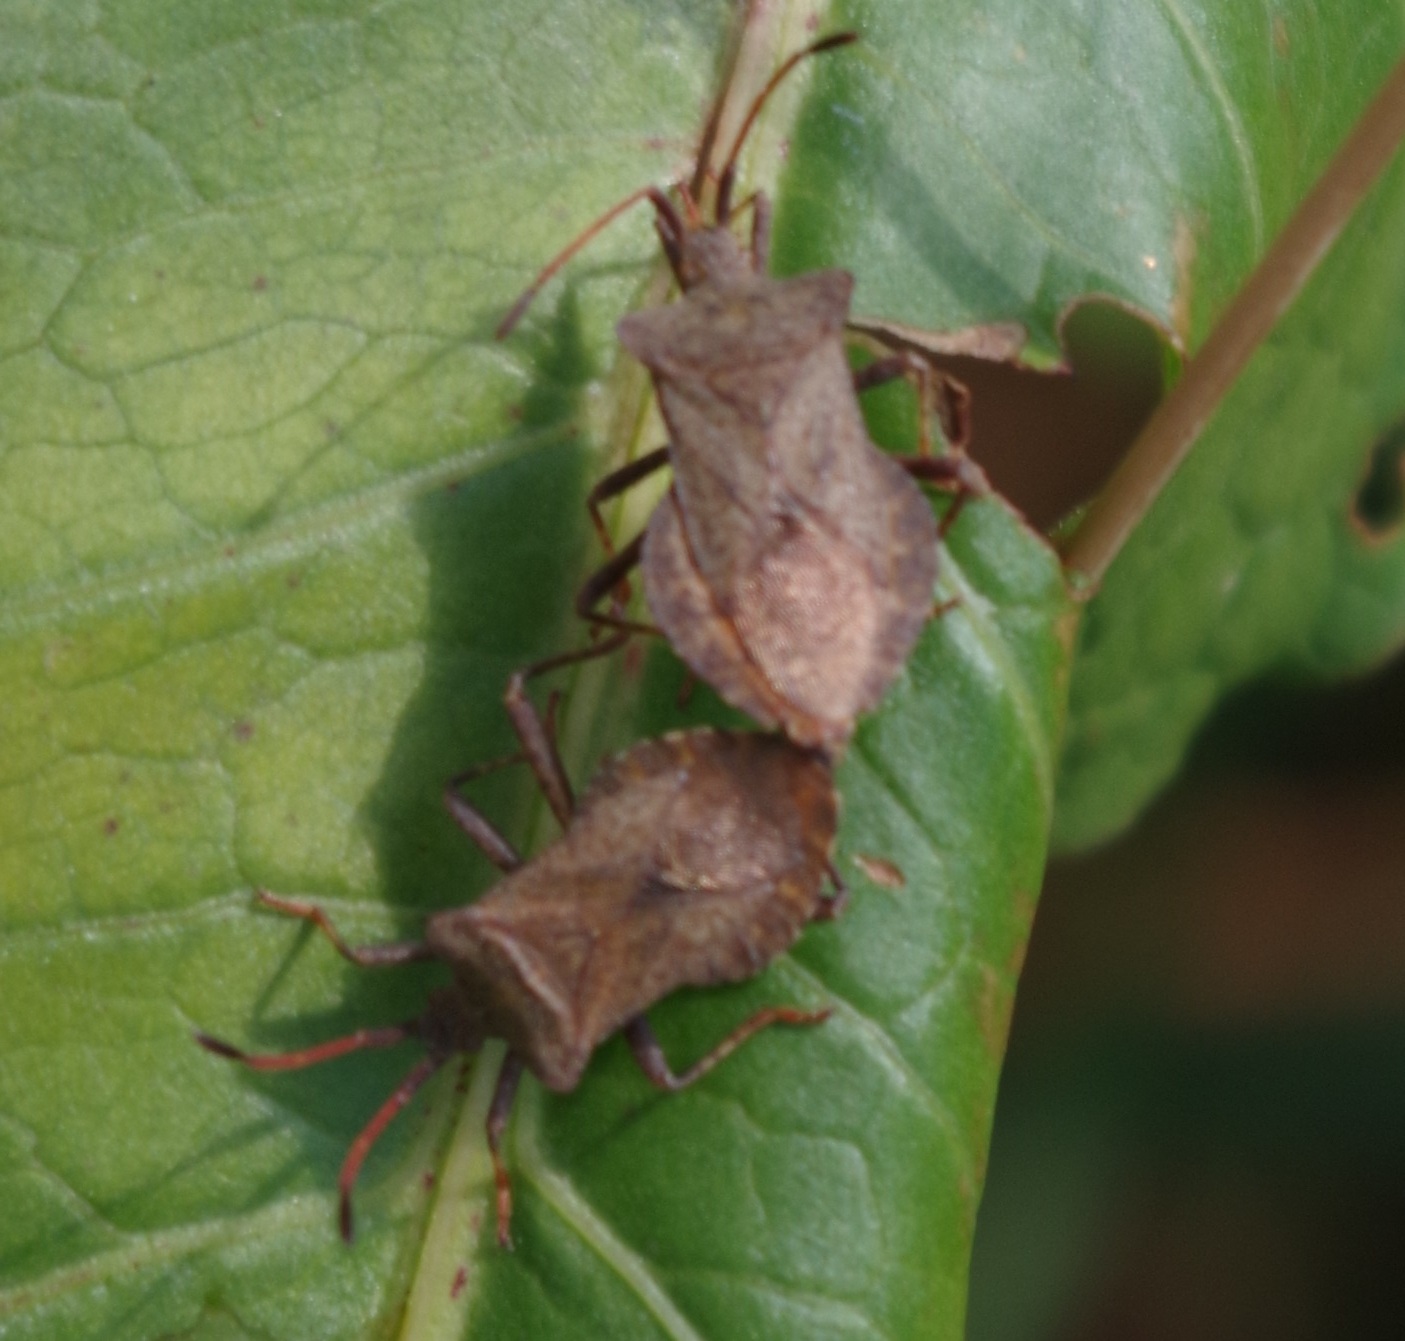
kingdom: Animalia
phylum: Arthropoda
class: Insecta
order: Hemiptera
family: Coreidae
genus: Coreus
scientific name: Coreus marginatus
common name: Dock bug
